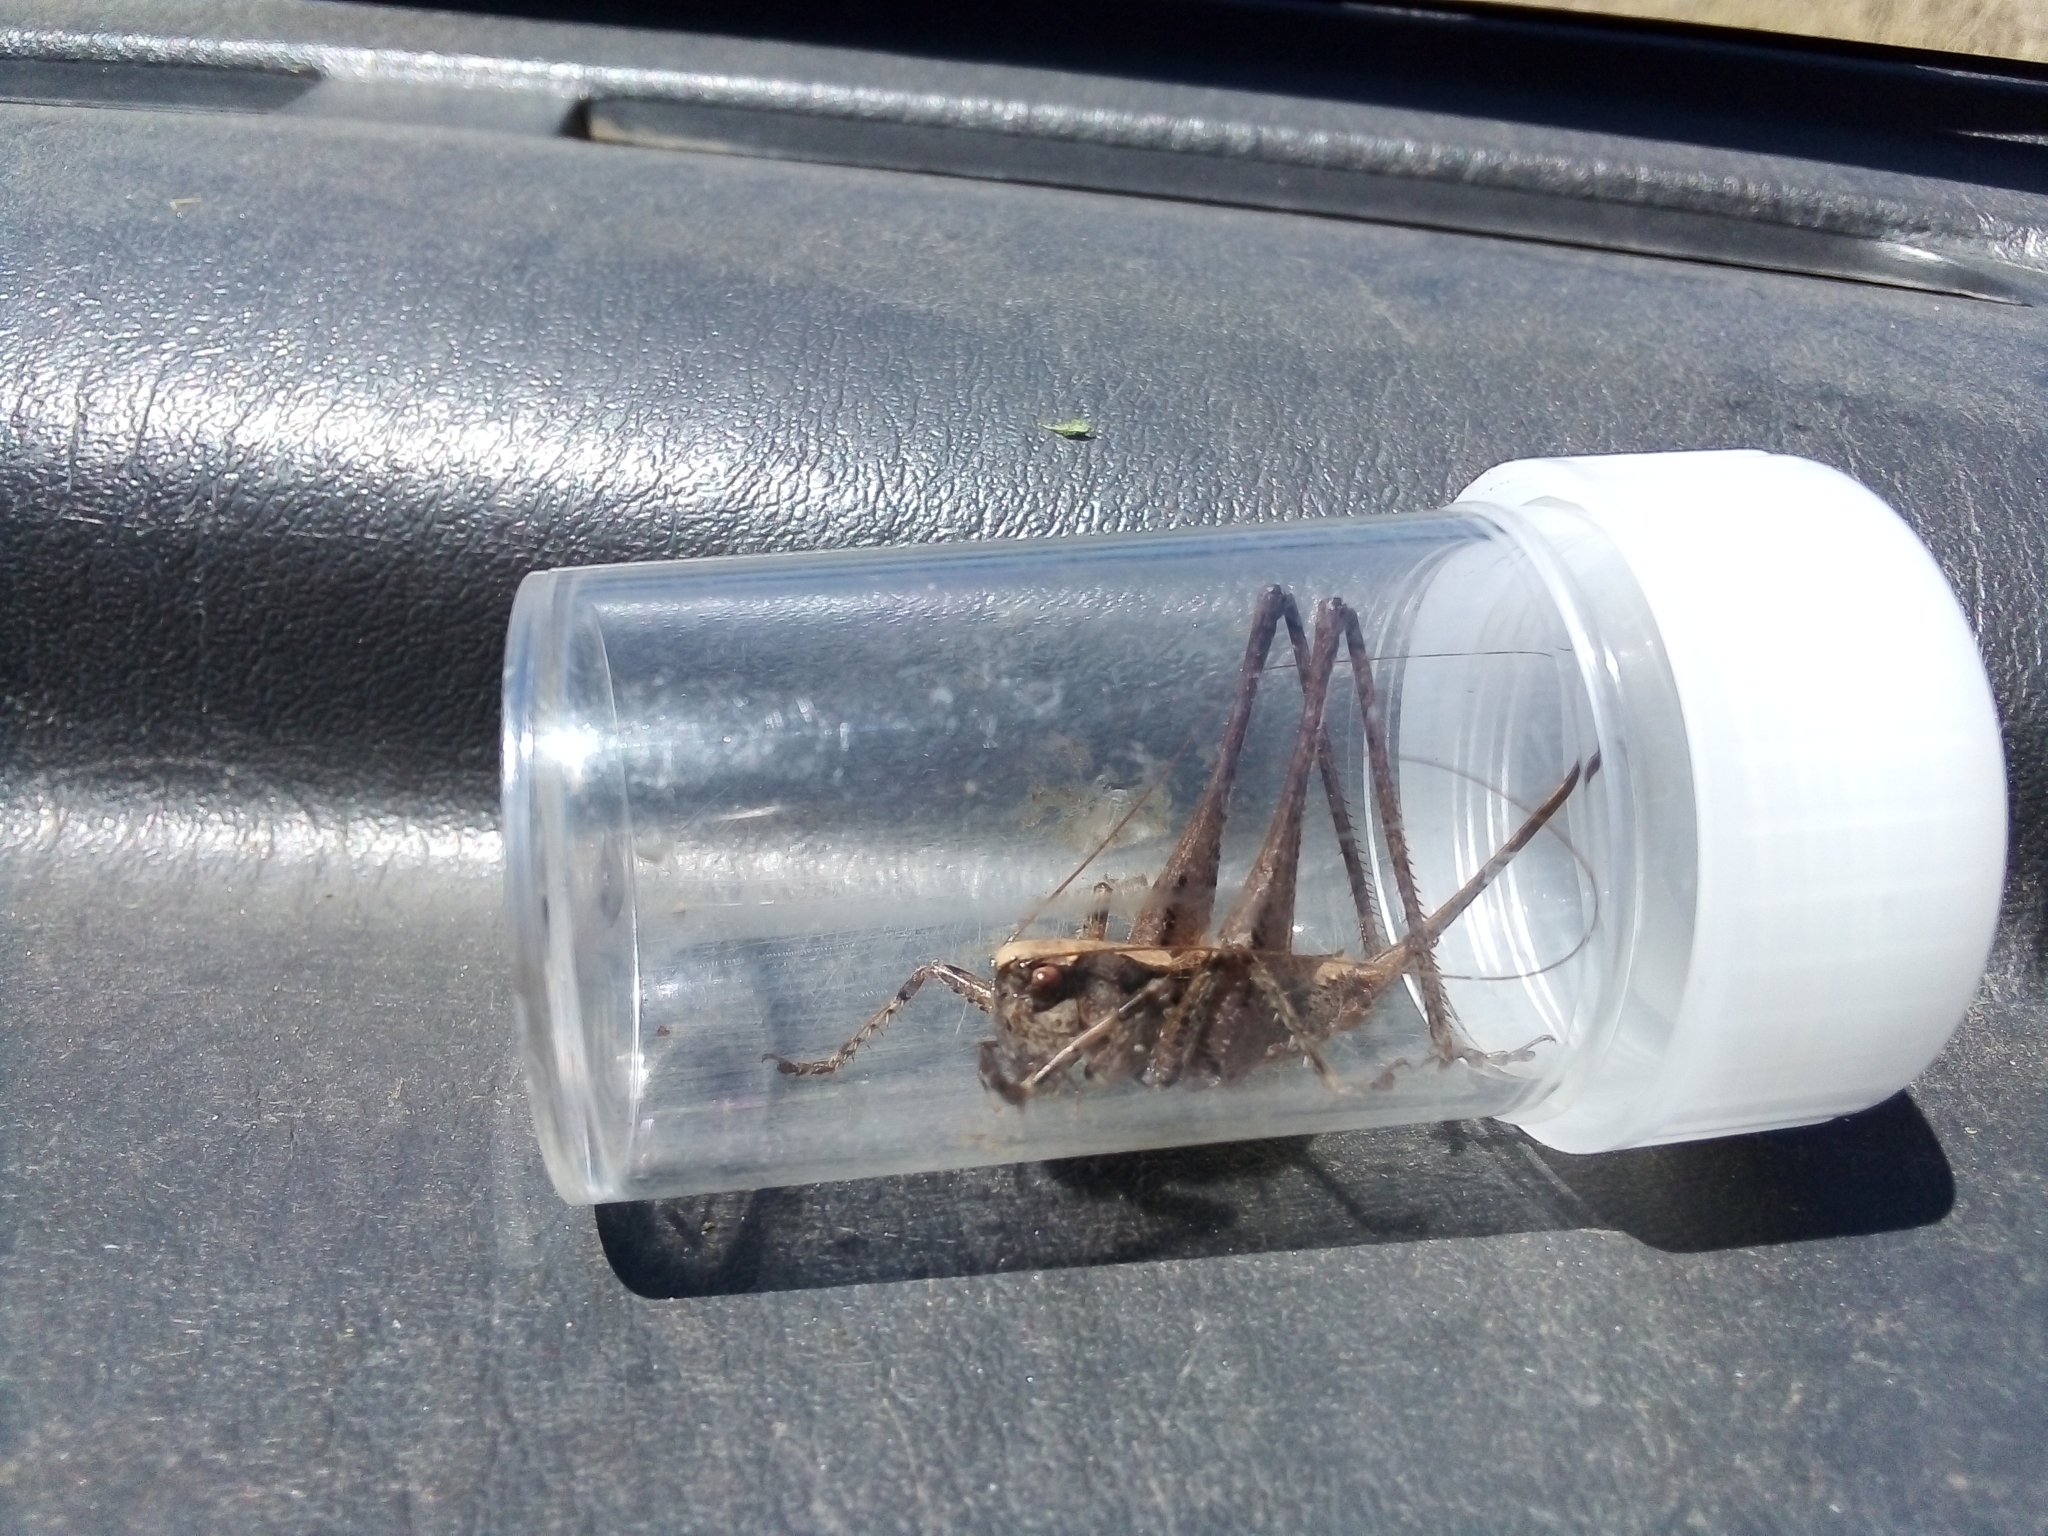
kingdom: Animalia
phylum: Arthropoda
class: Insecta
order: Orthoptera
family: Tettigoniidae
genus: Antaxius
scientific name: Antaxius spinibrachius
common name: Spiny-legged bush-cricket
